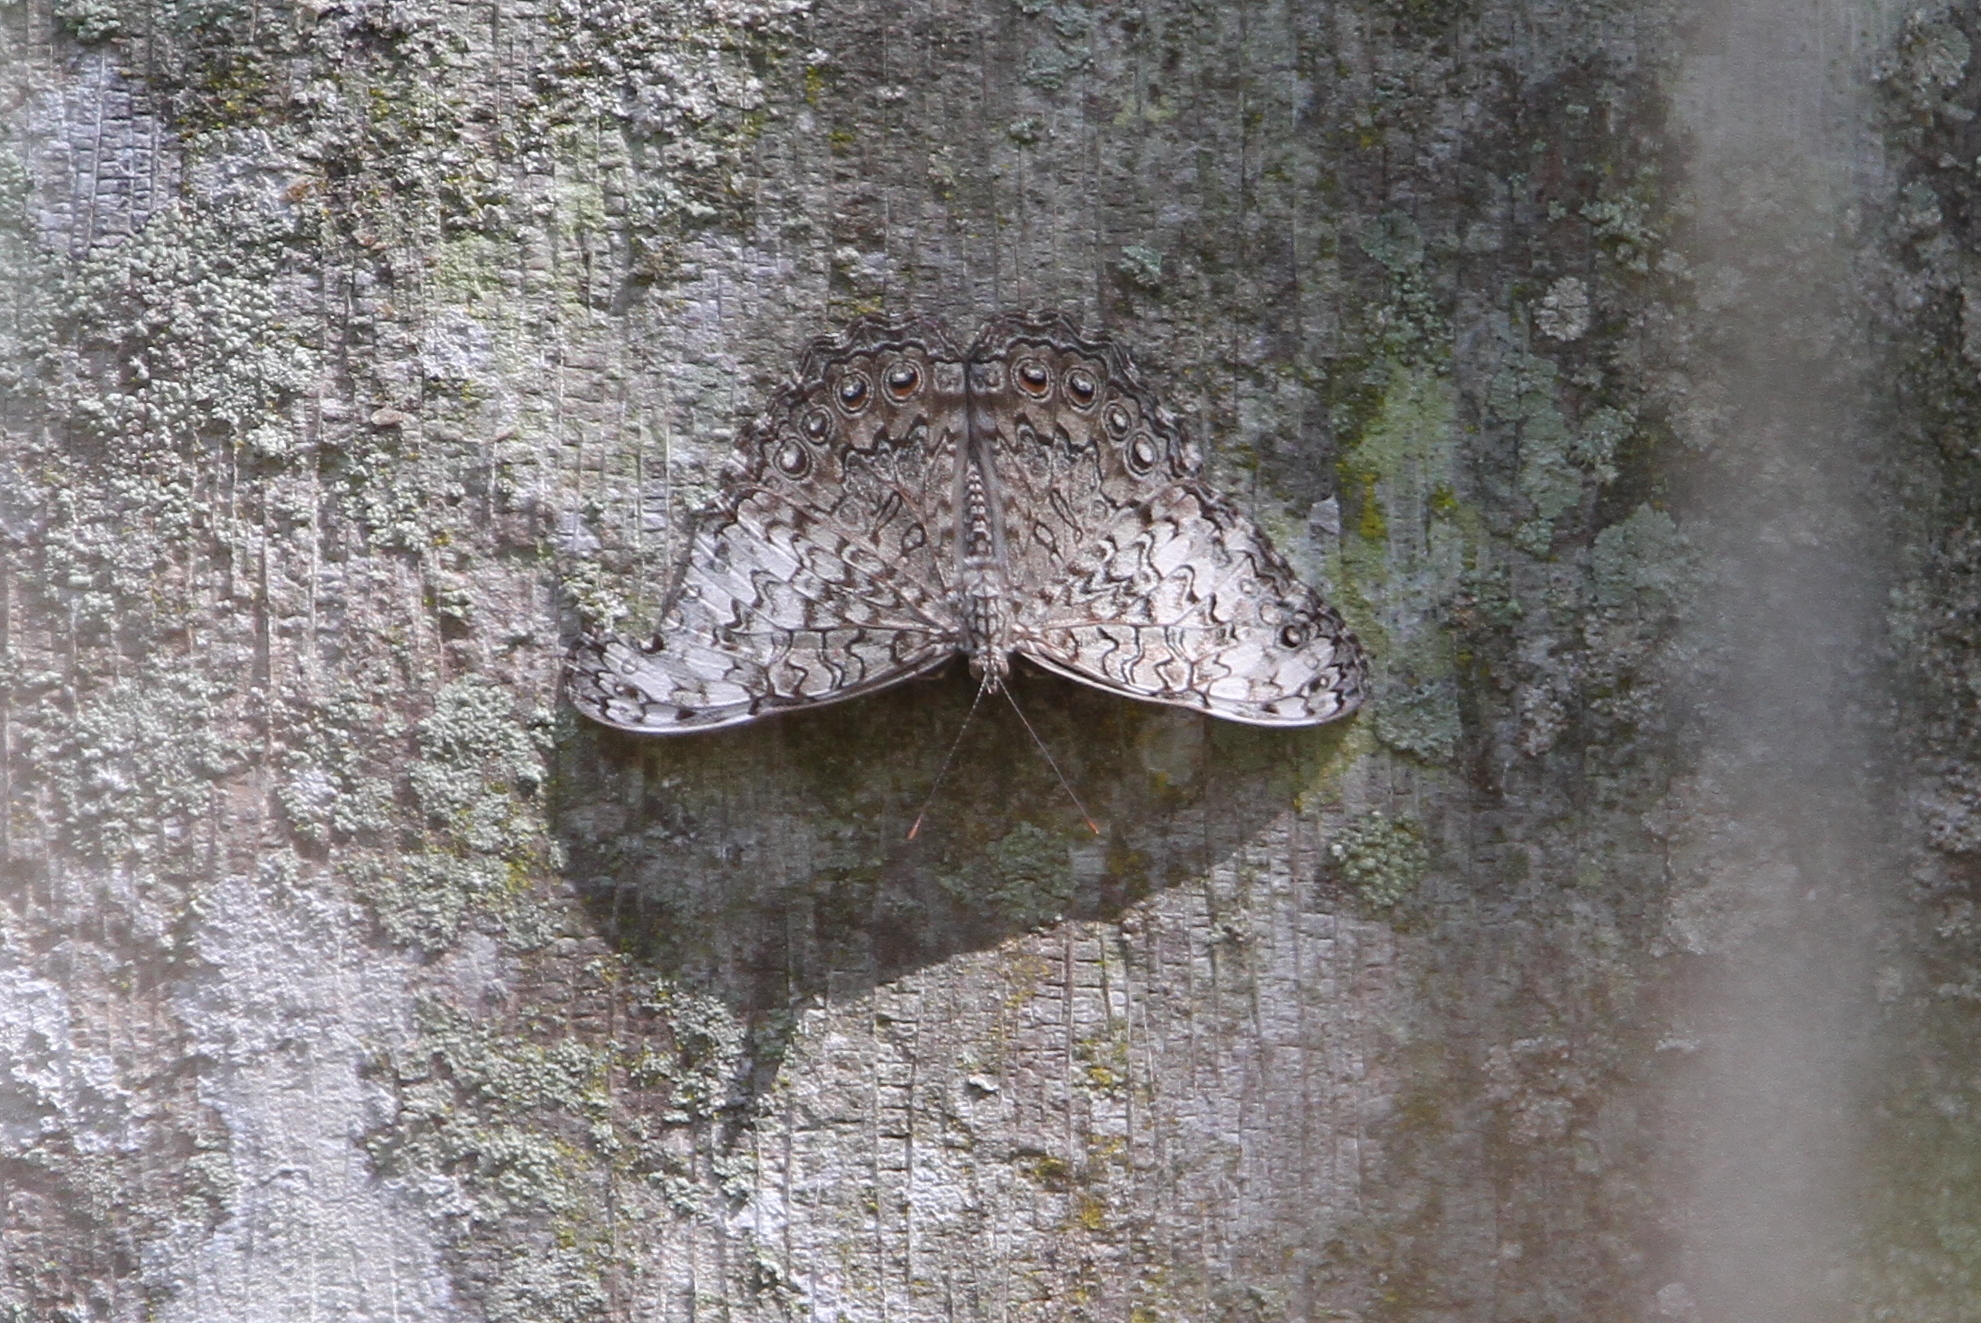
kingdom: Animalia
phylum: Arthropoda
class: Insecta
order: Lepidoptera
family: Nymphalidae
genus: Hamadryas
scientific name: Hamadryas februa
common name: Gray cracker
